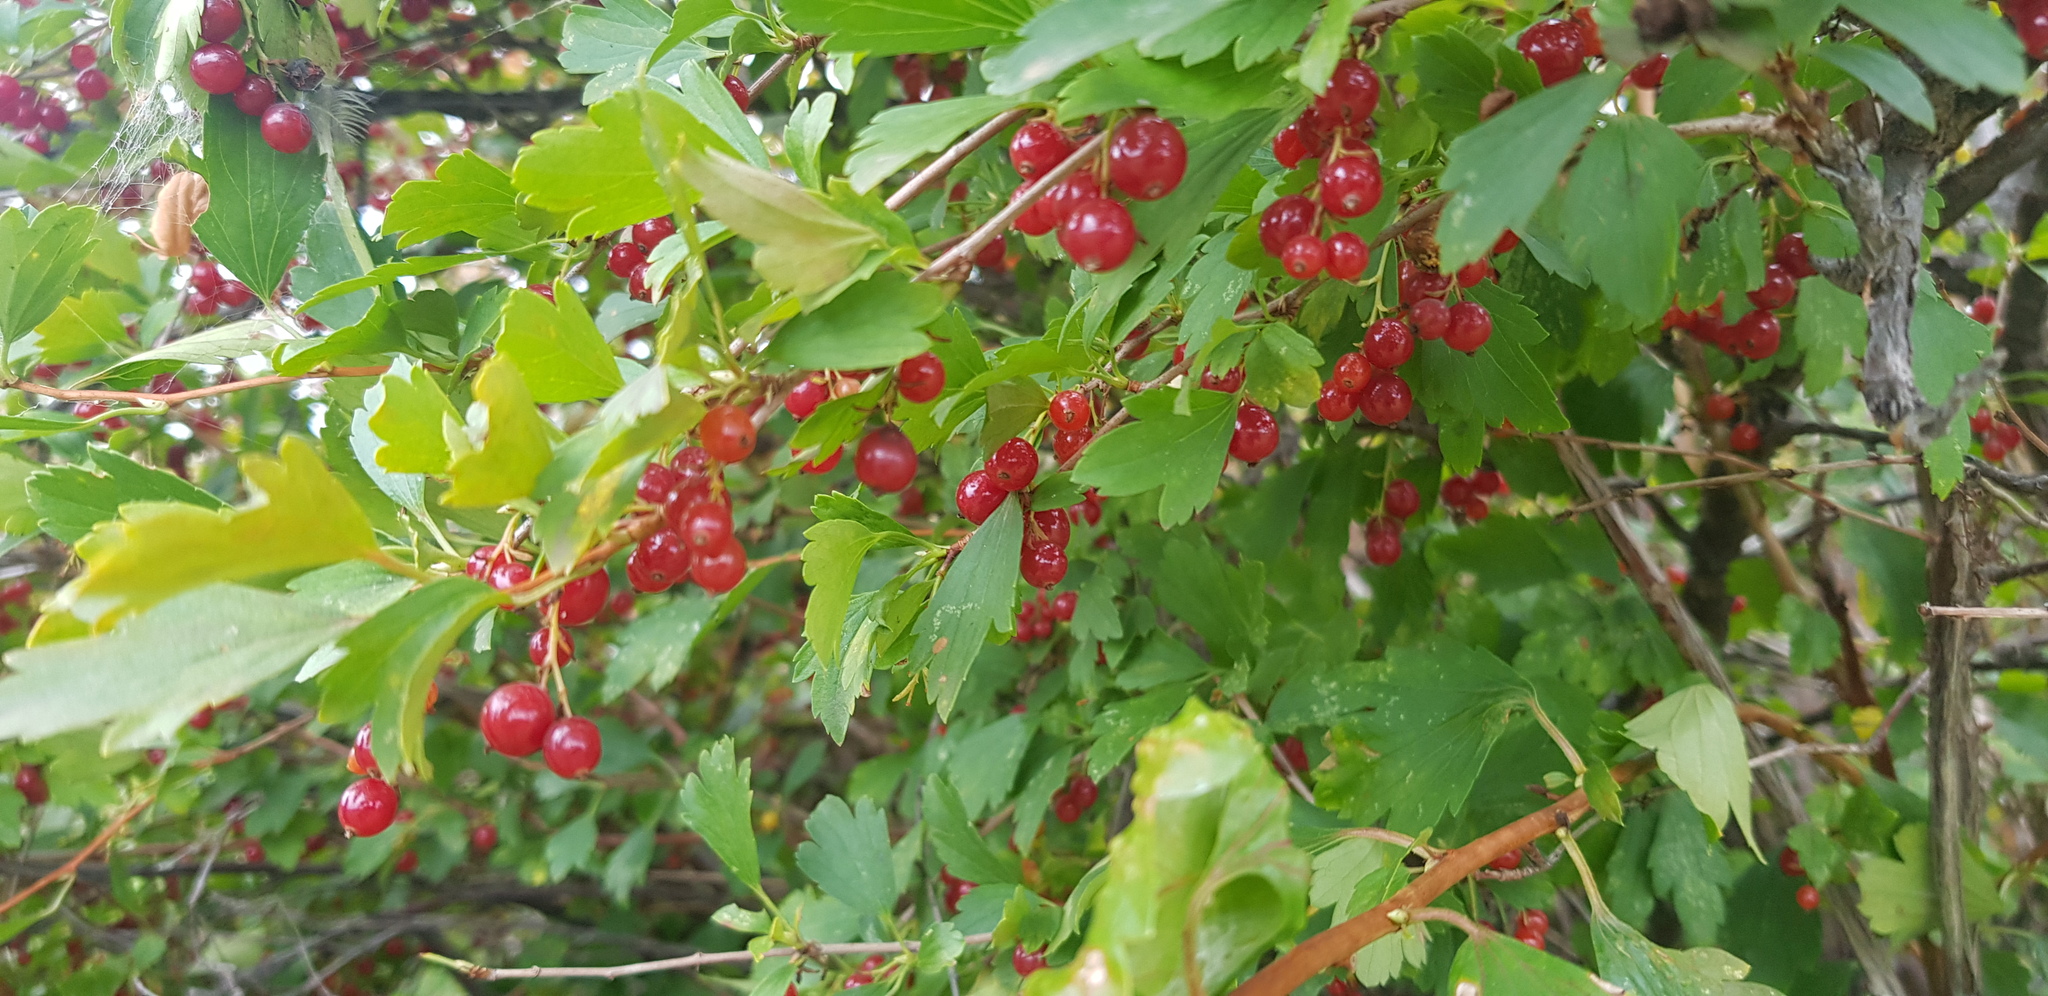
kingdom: Plantae
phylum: Tracheophyta
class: Magnoliopsida
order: Saxifragales
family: Grossulariaceae
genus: Ribes
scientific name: Ribes diacanthum
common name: Siberian currant
